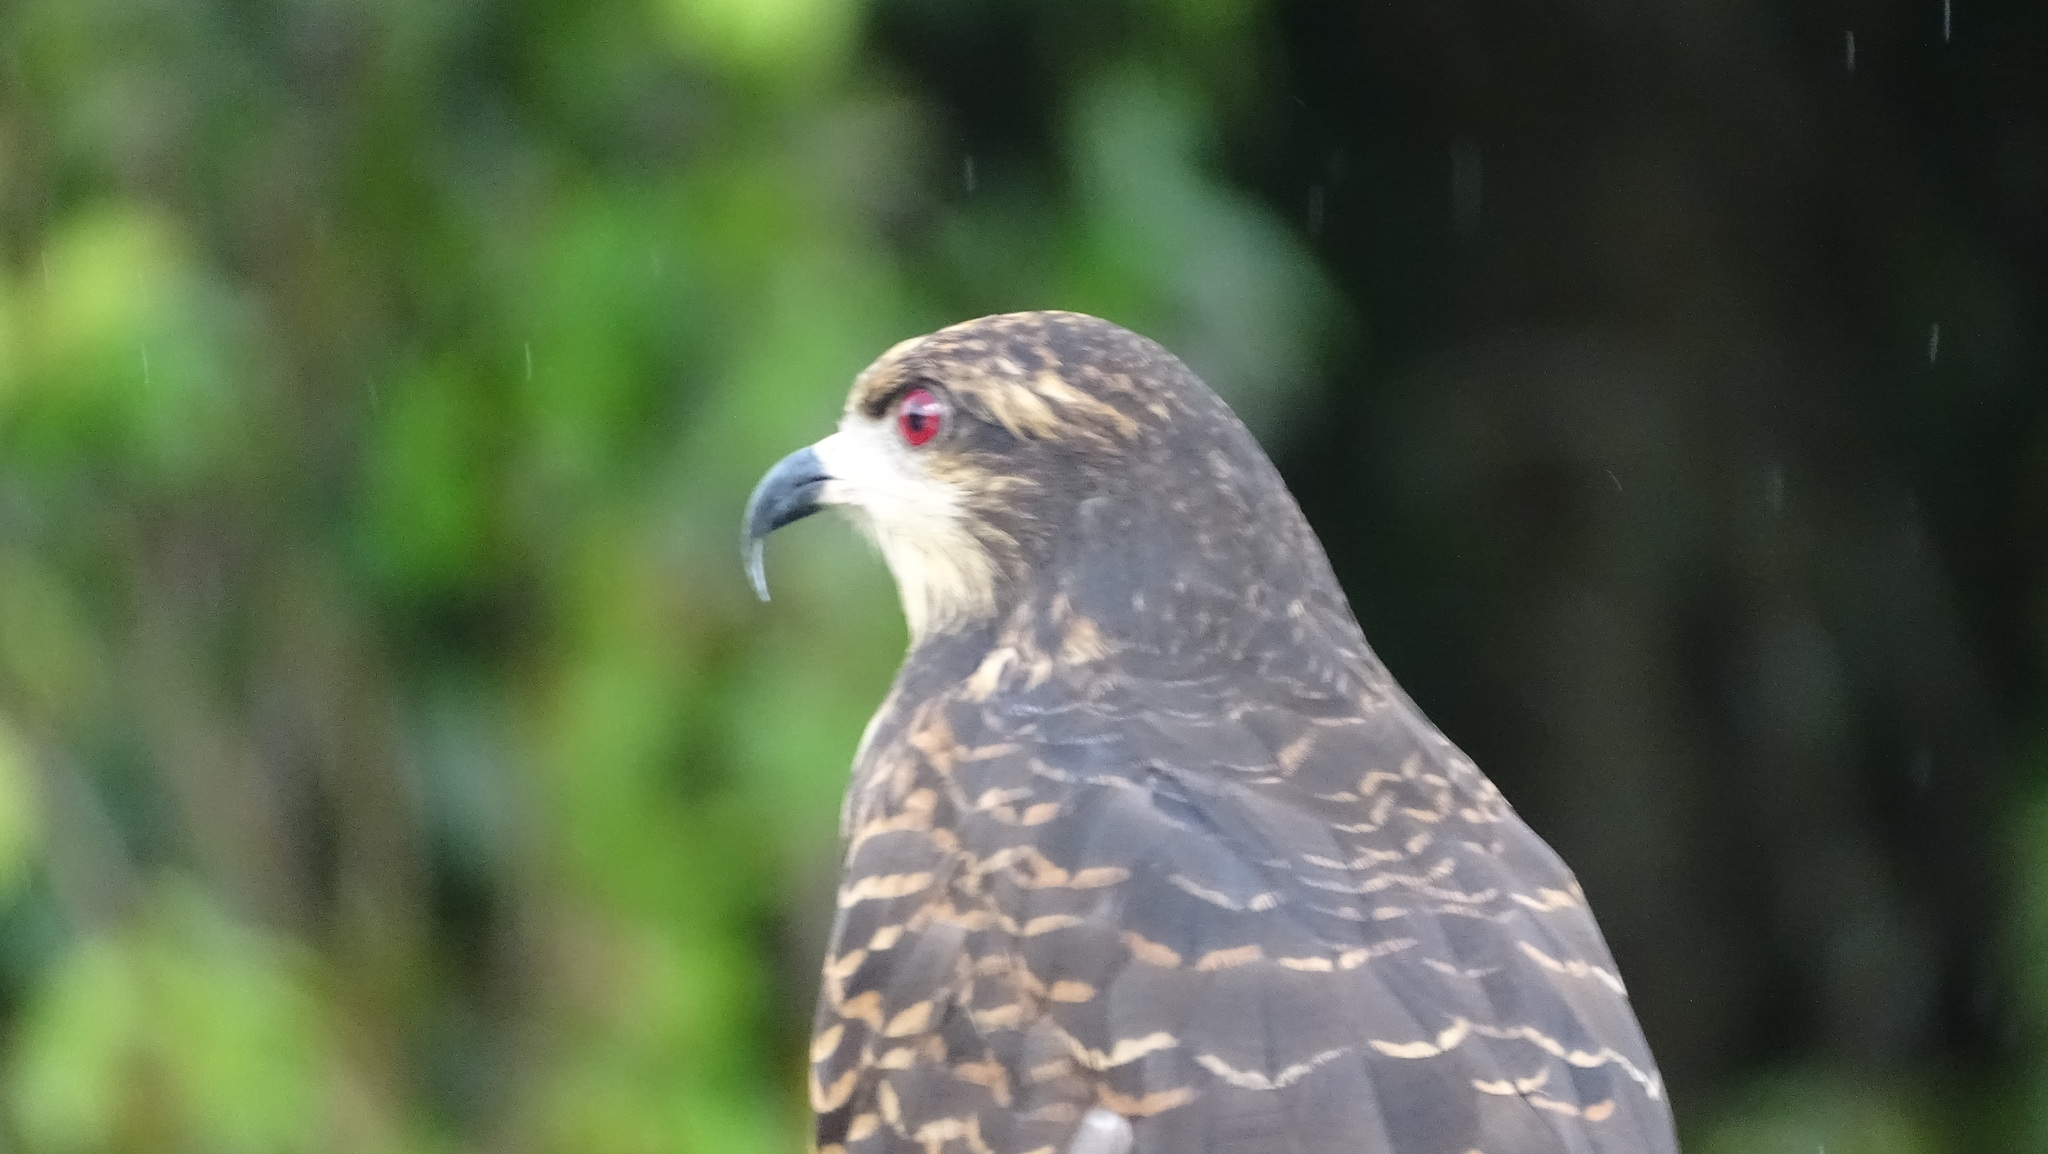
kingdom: Animalia
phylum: Chordata
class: Aves
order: Accipitriformes
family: Accipitridae
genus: Rostrhamus
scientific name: Rostrhamus sociabilis
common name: Snail kite
